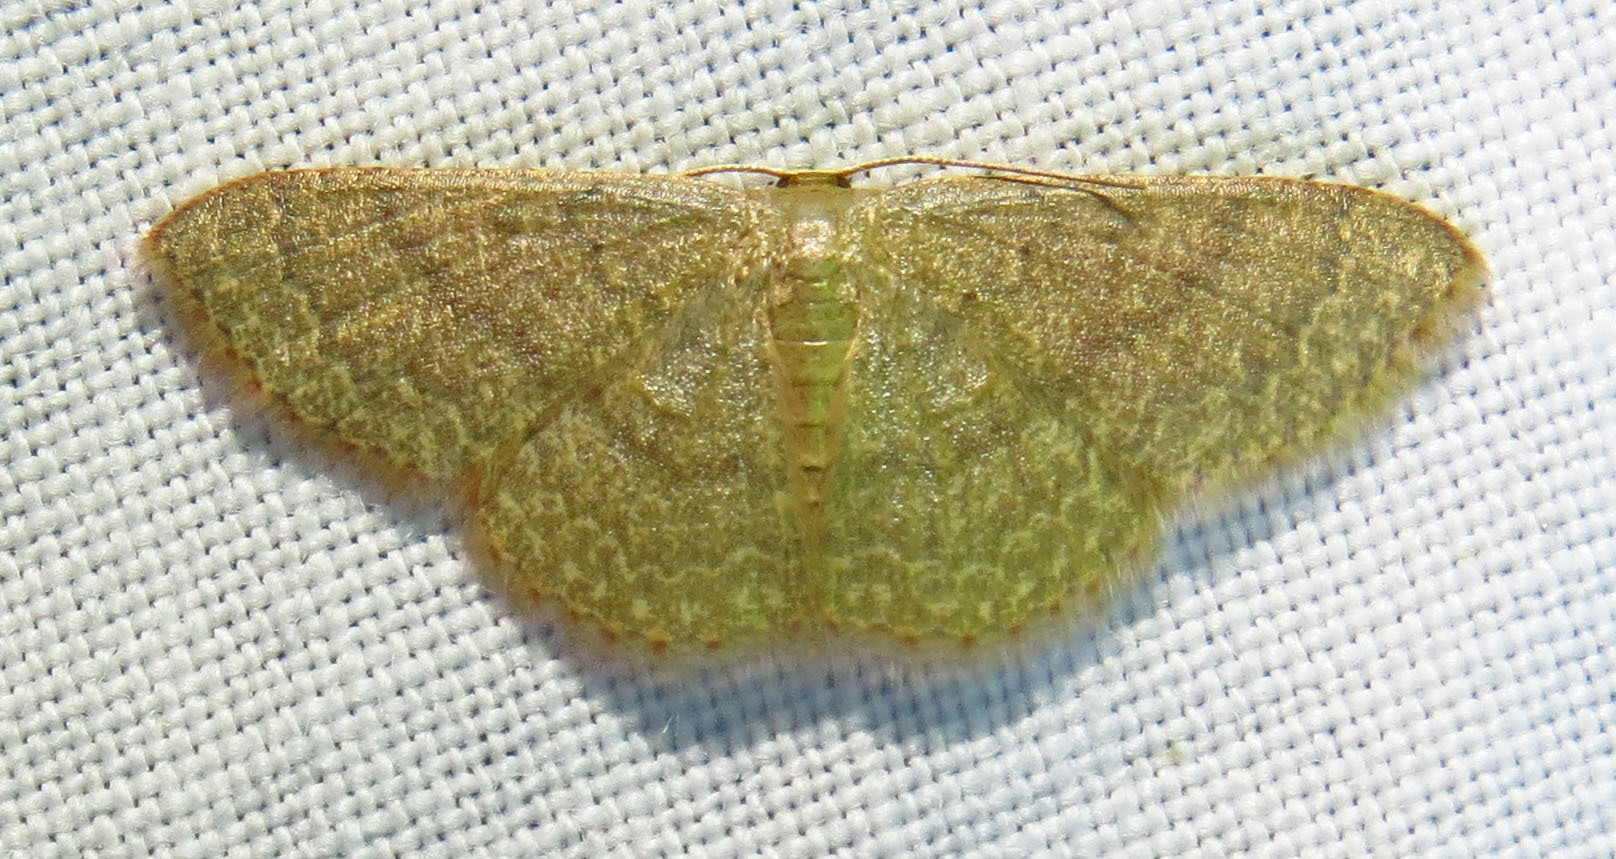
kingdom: Animalia
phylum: Arthropoda
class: Insecta
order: Lepidoptera
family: Geometridae
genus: Pleuroprucha
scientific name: Pleuroprucha insulsaria
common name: Common tan wave
